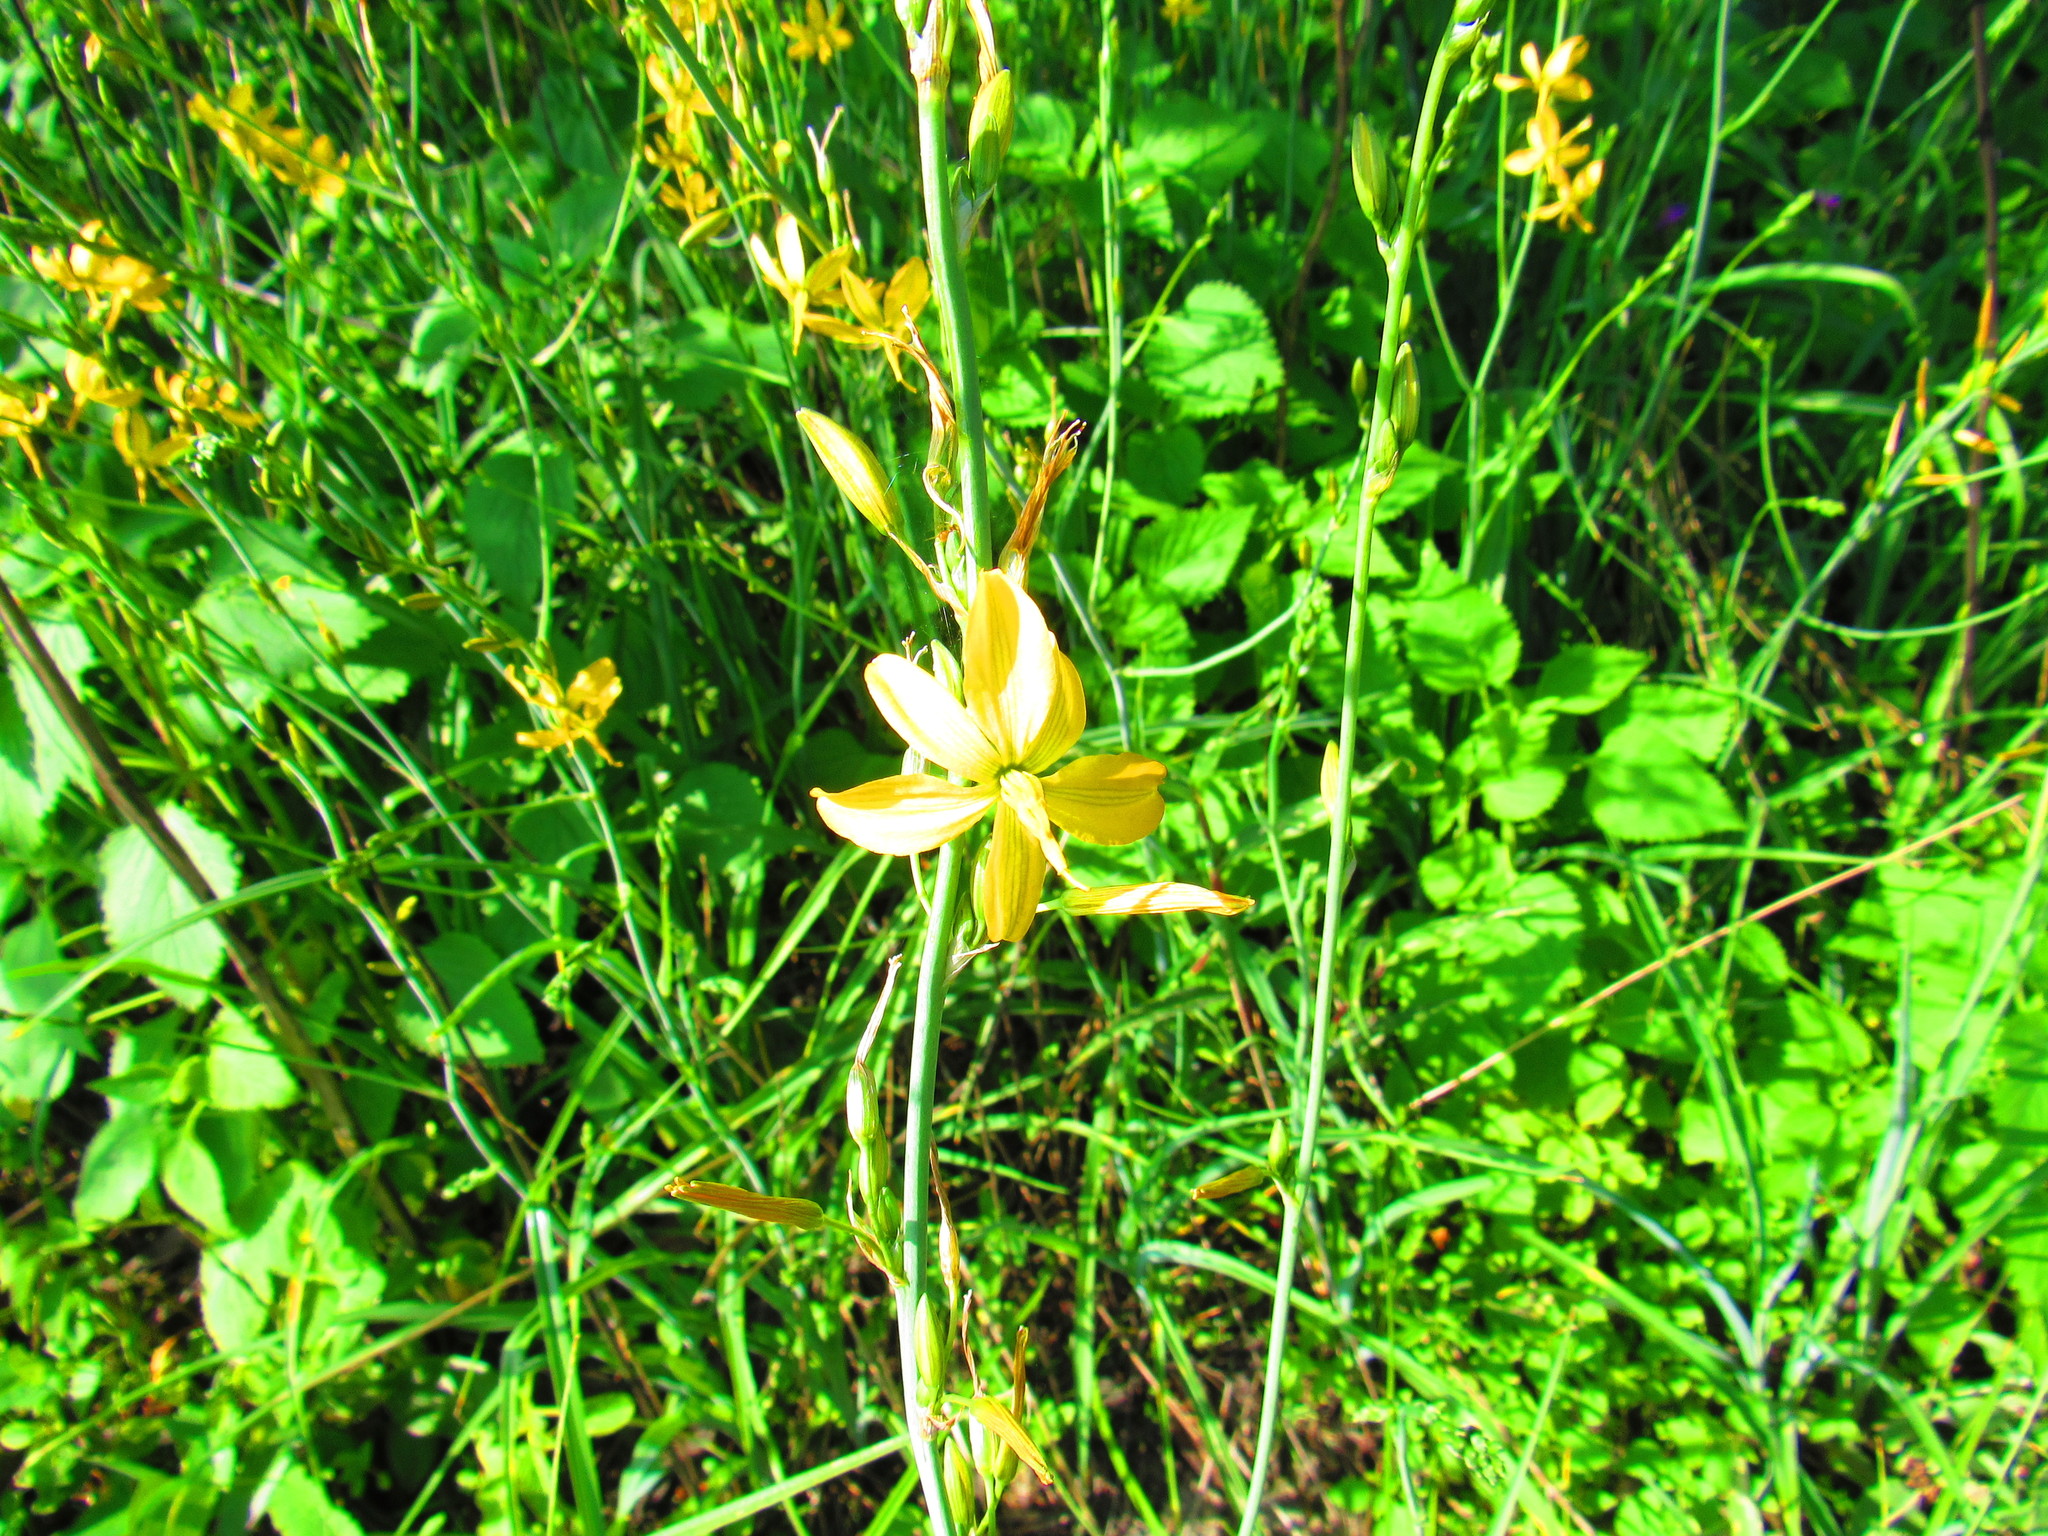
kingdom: Plantae
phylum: Tracheophyta
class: Liliopsida
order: Asparagales
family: Asparagaceae
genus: Echeandia
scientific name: Echeandia mexicana
